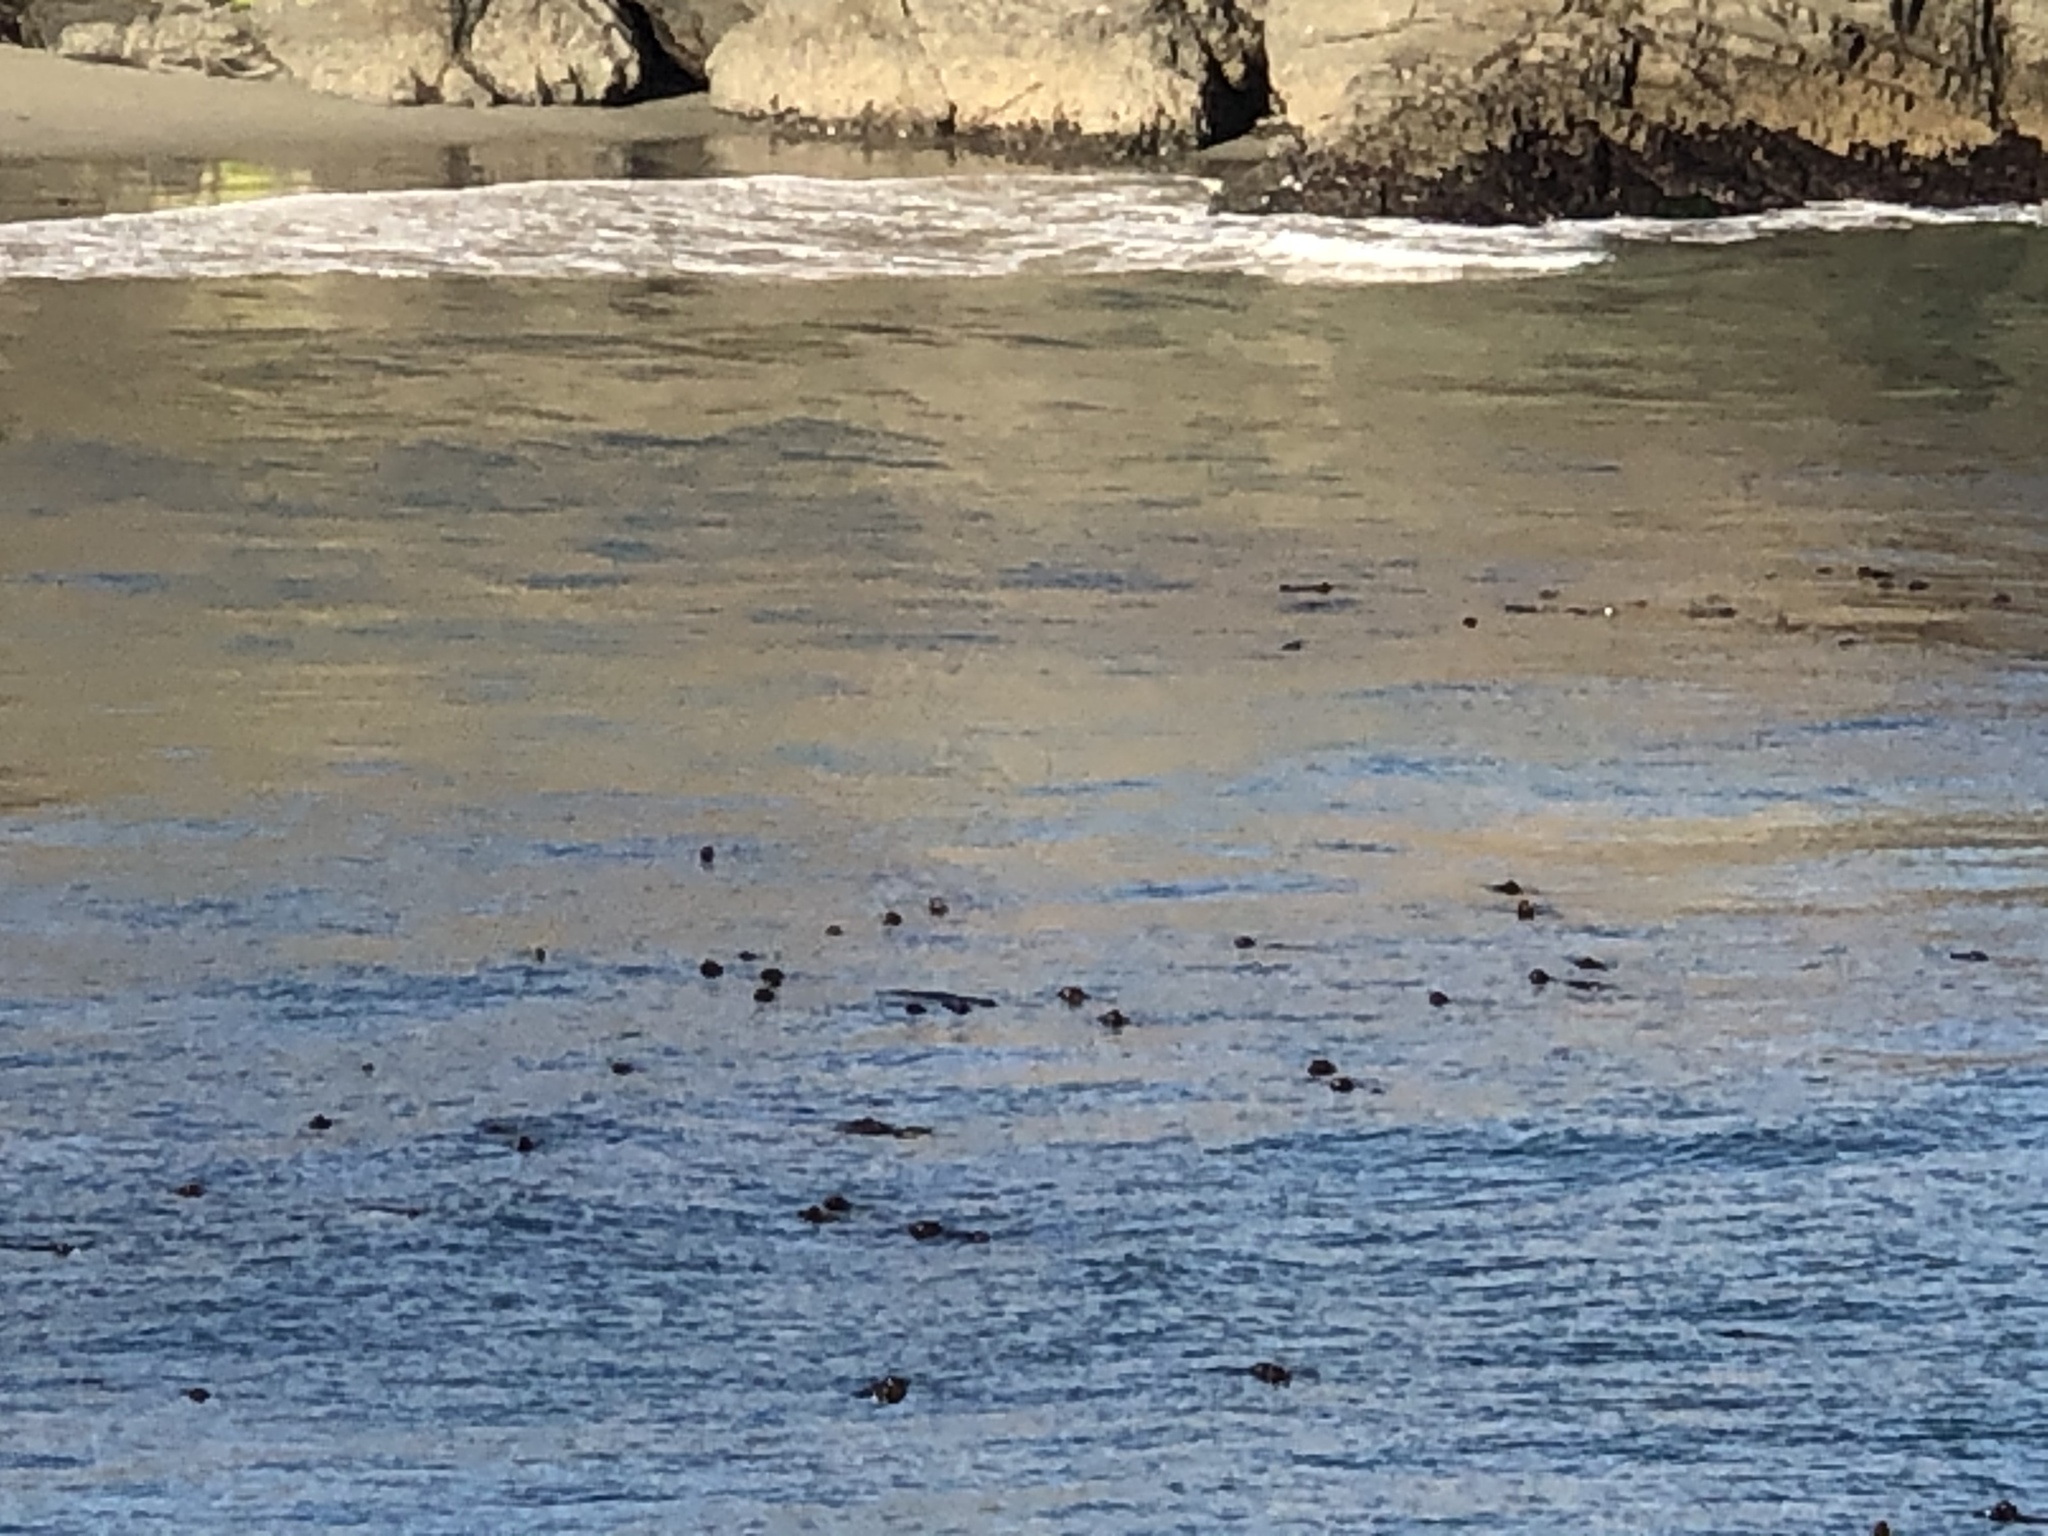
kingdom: Chromista
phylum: Ochrophyta
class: Phaeophyceae
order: Laminariales
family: Laminariaceae
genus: Nereocystis
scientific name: Nereocystis luetkeana
